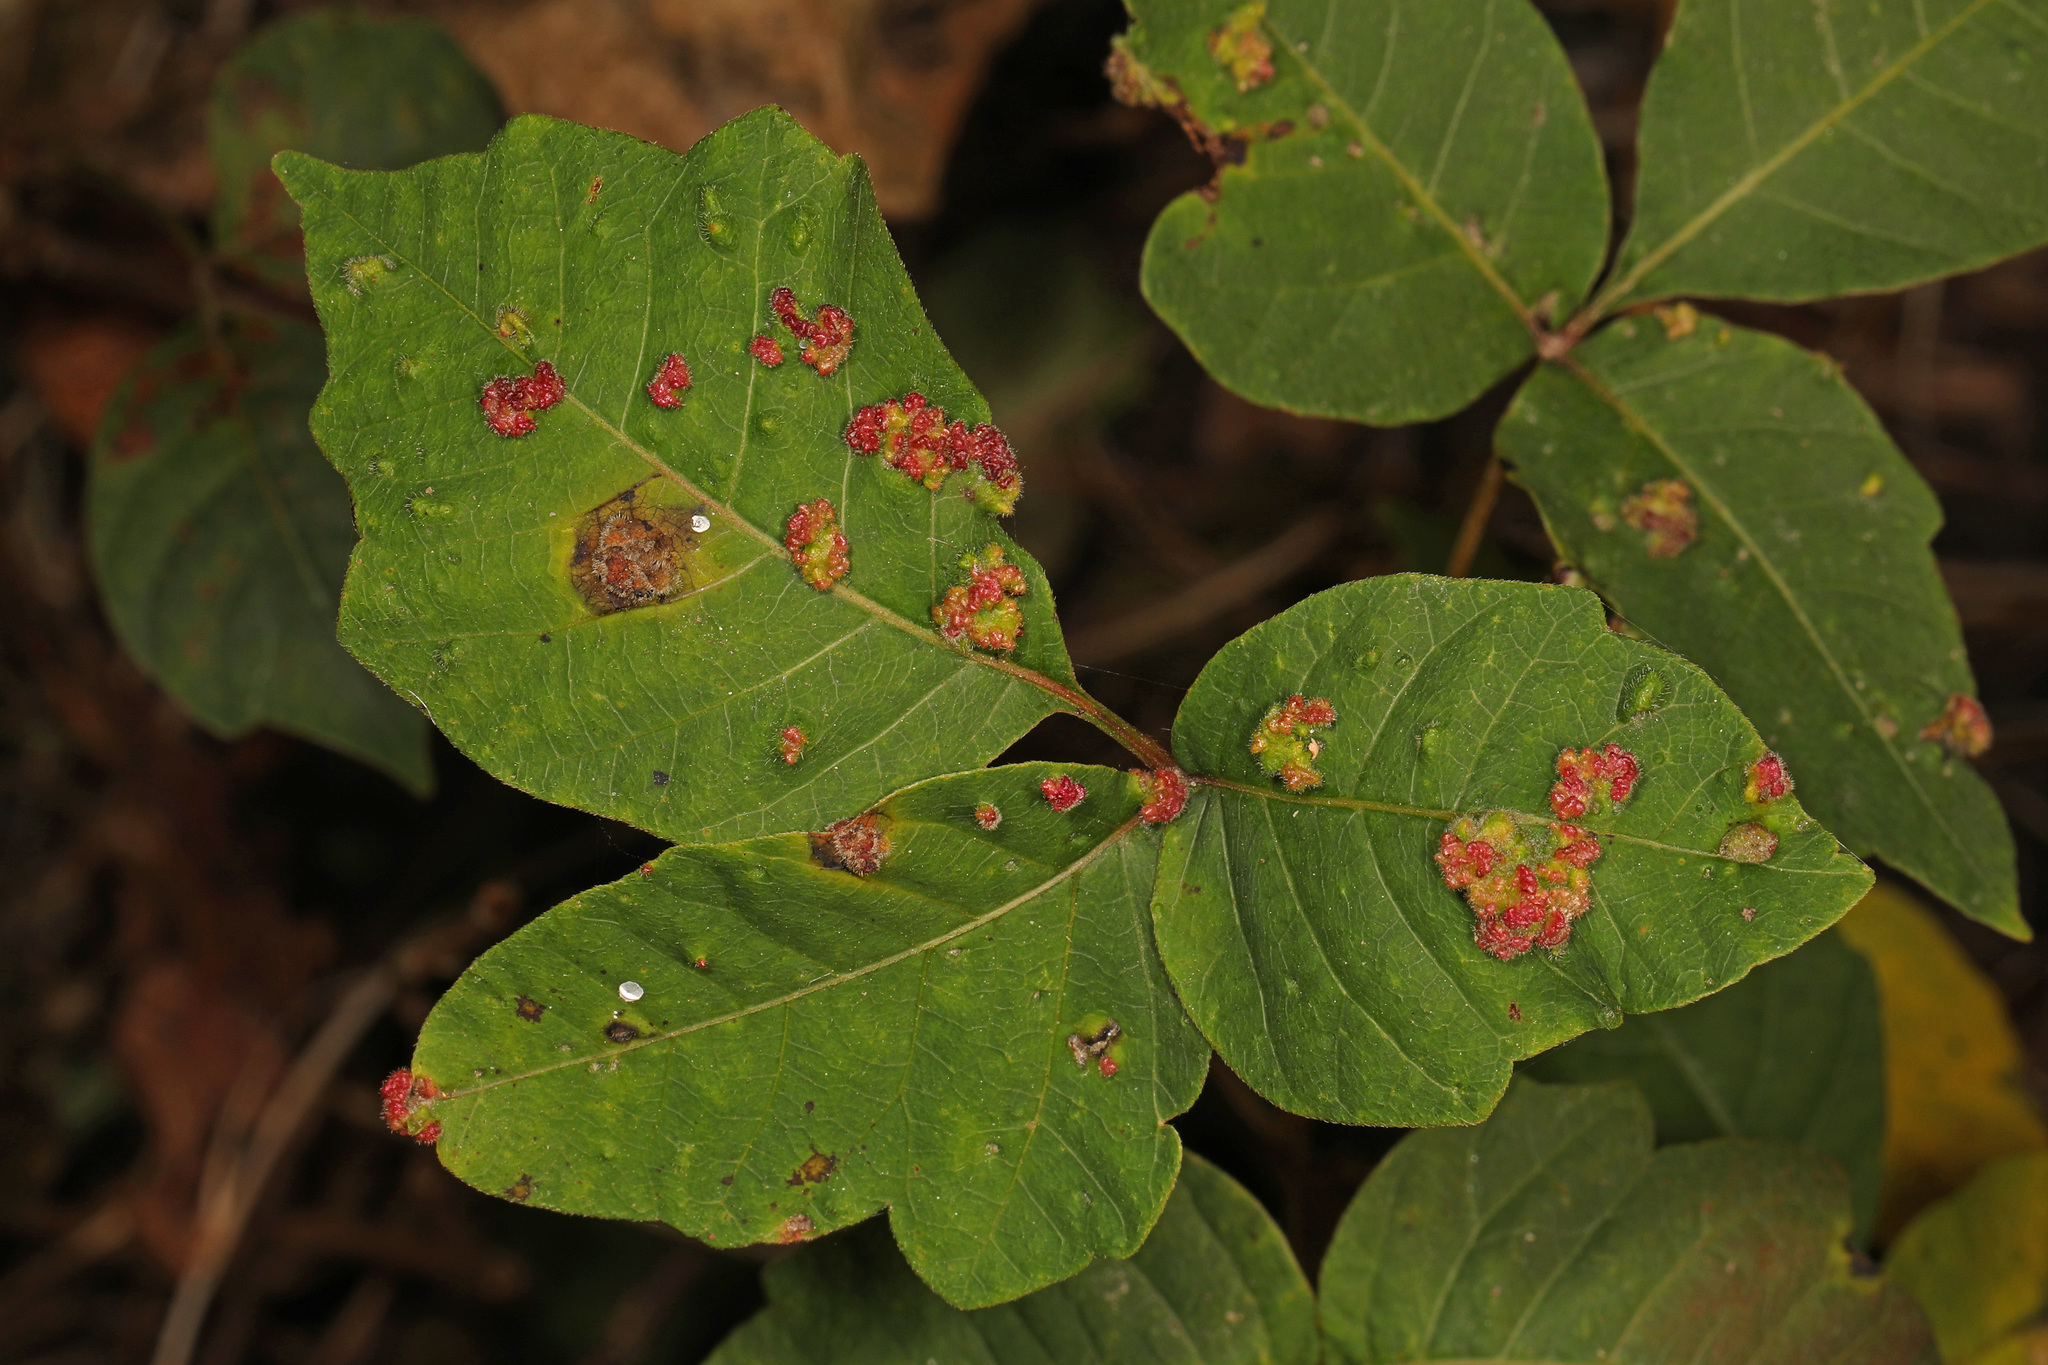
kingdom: Animalia
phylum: Arthropoda
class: Arachnida
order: Trombidiformes
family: Eriophyidae
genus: Aculops
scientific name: Aculops
